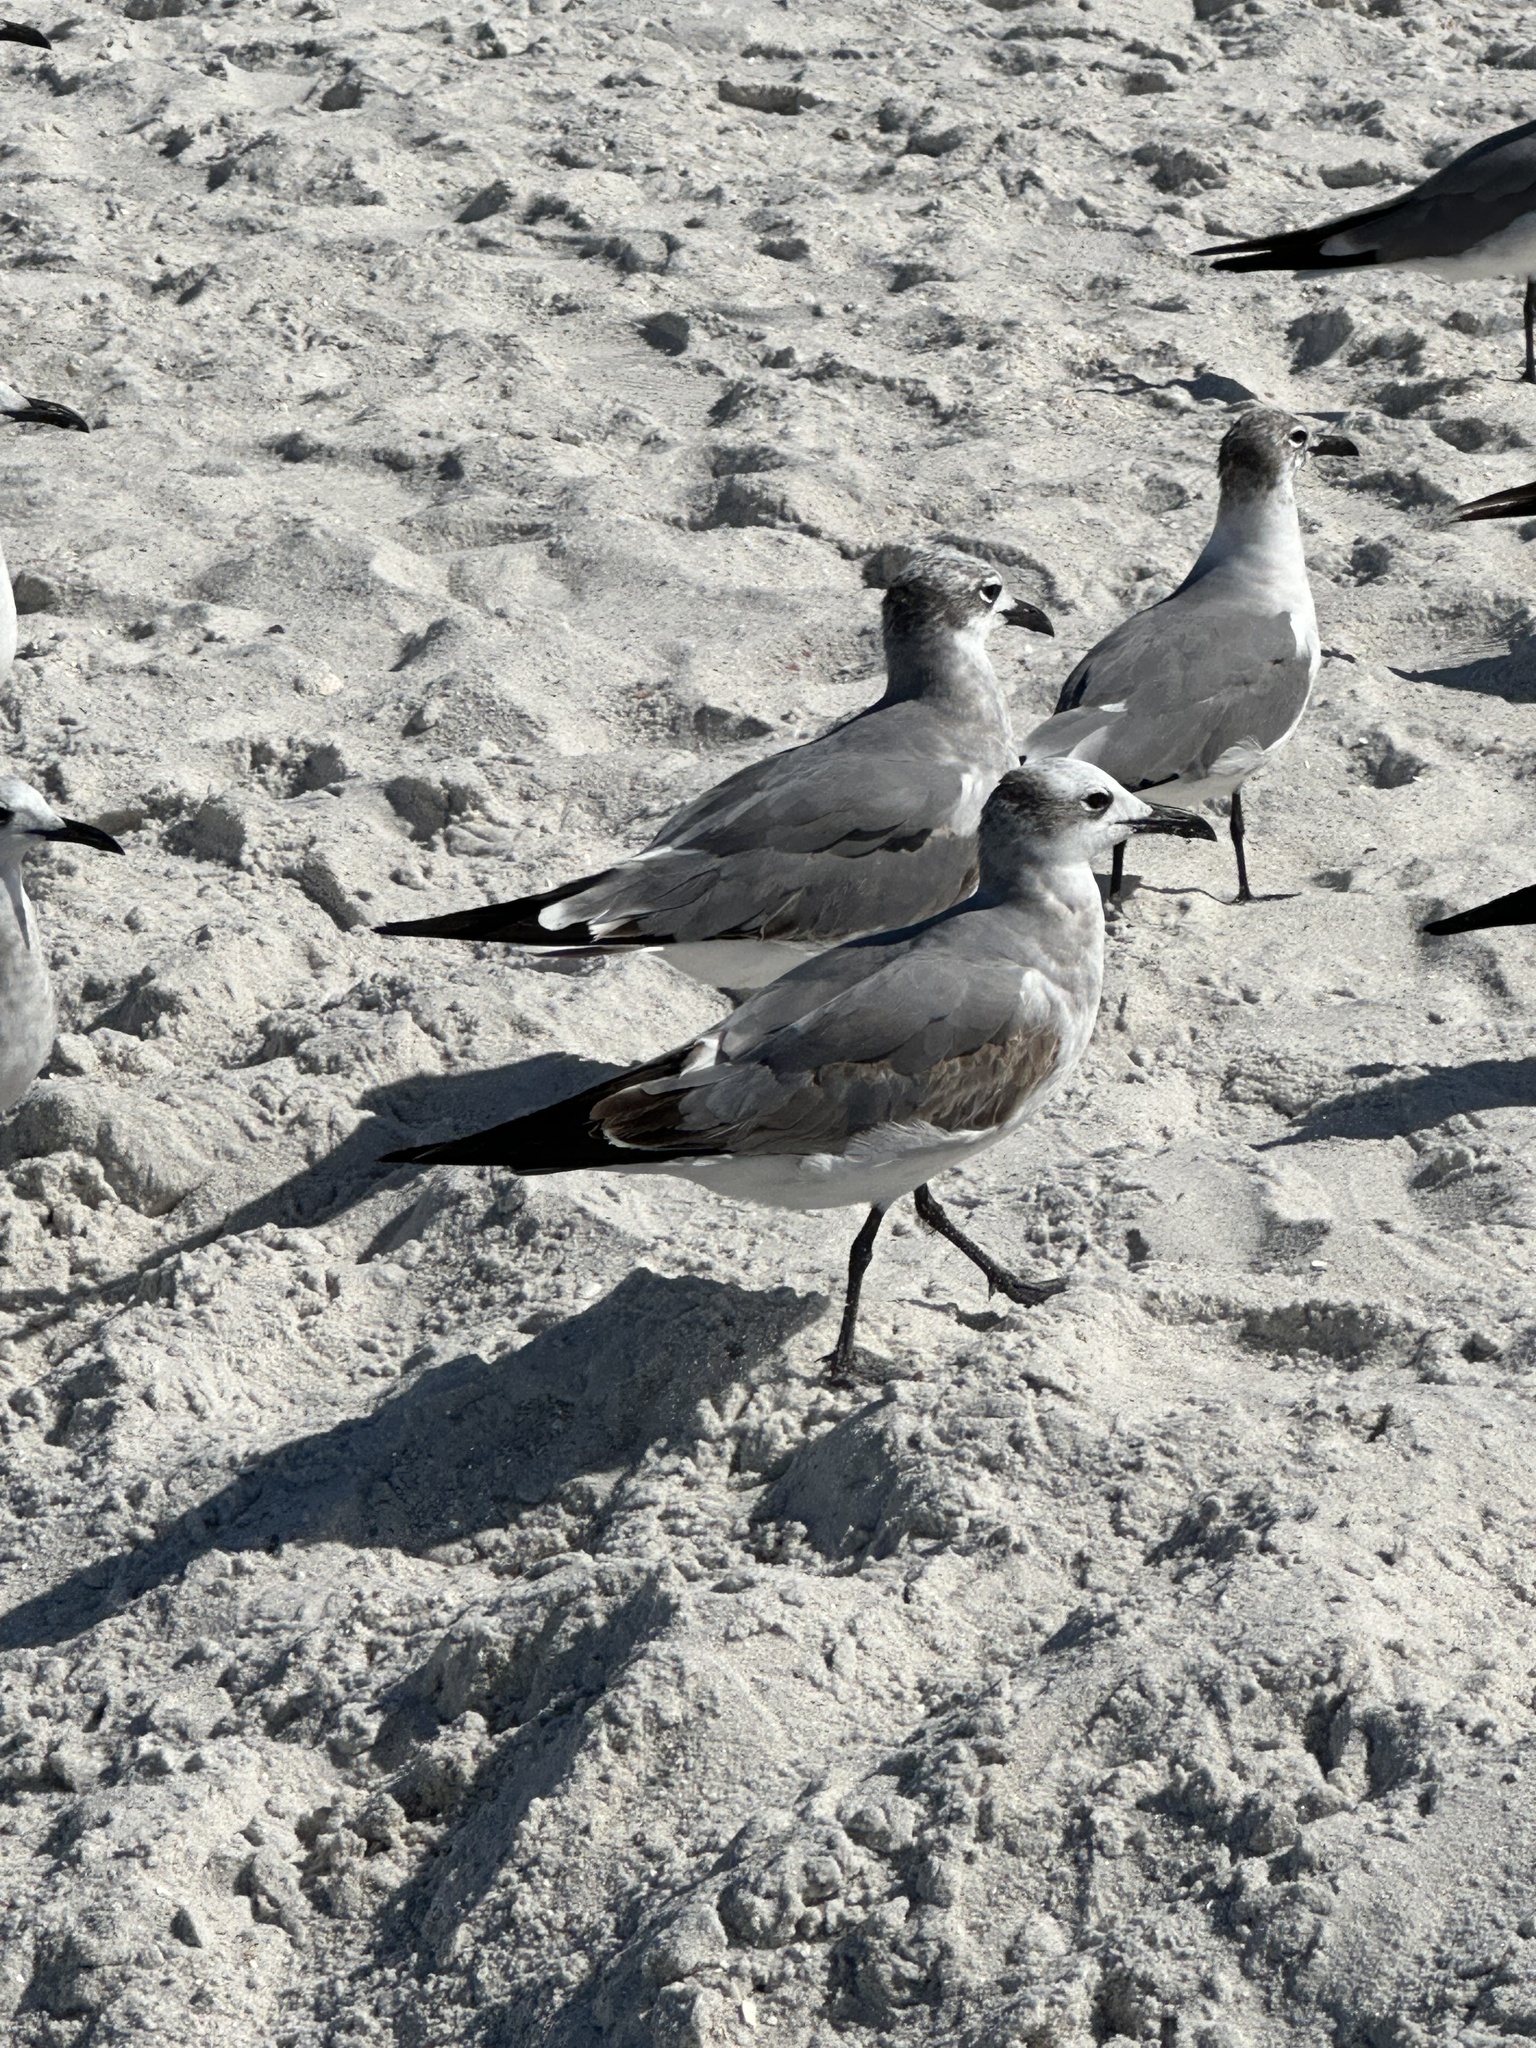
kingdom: Animalia
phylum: Chordata
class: Aves
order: Charadriiformes
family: Laridae
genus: Leucophaeus
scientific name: Leucophaeus atricilla
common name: Laughing gull
